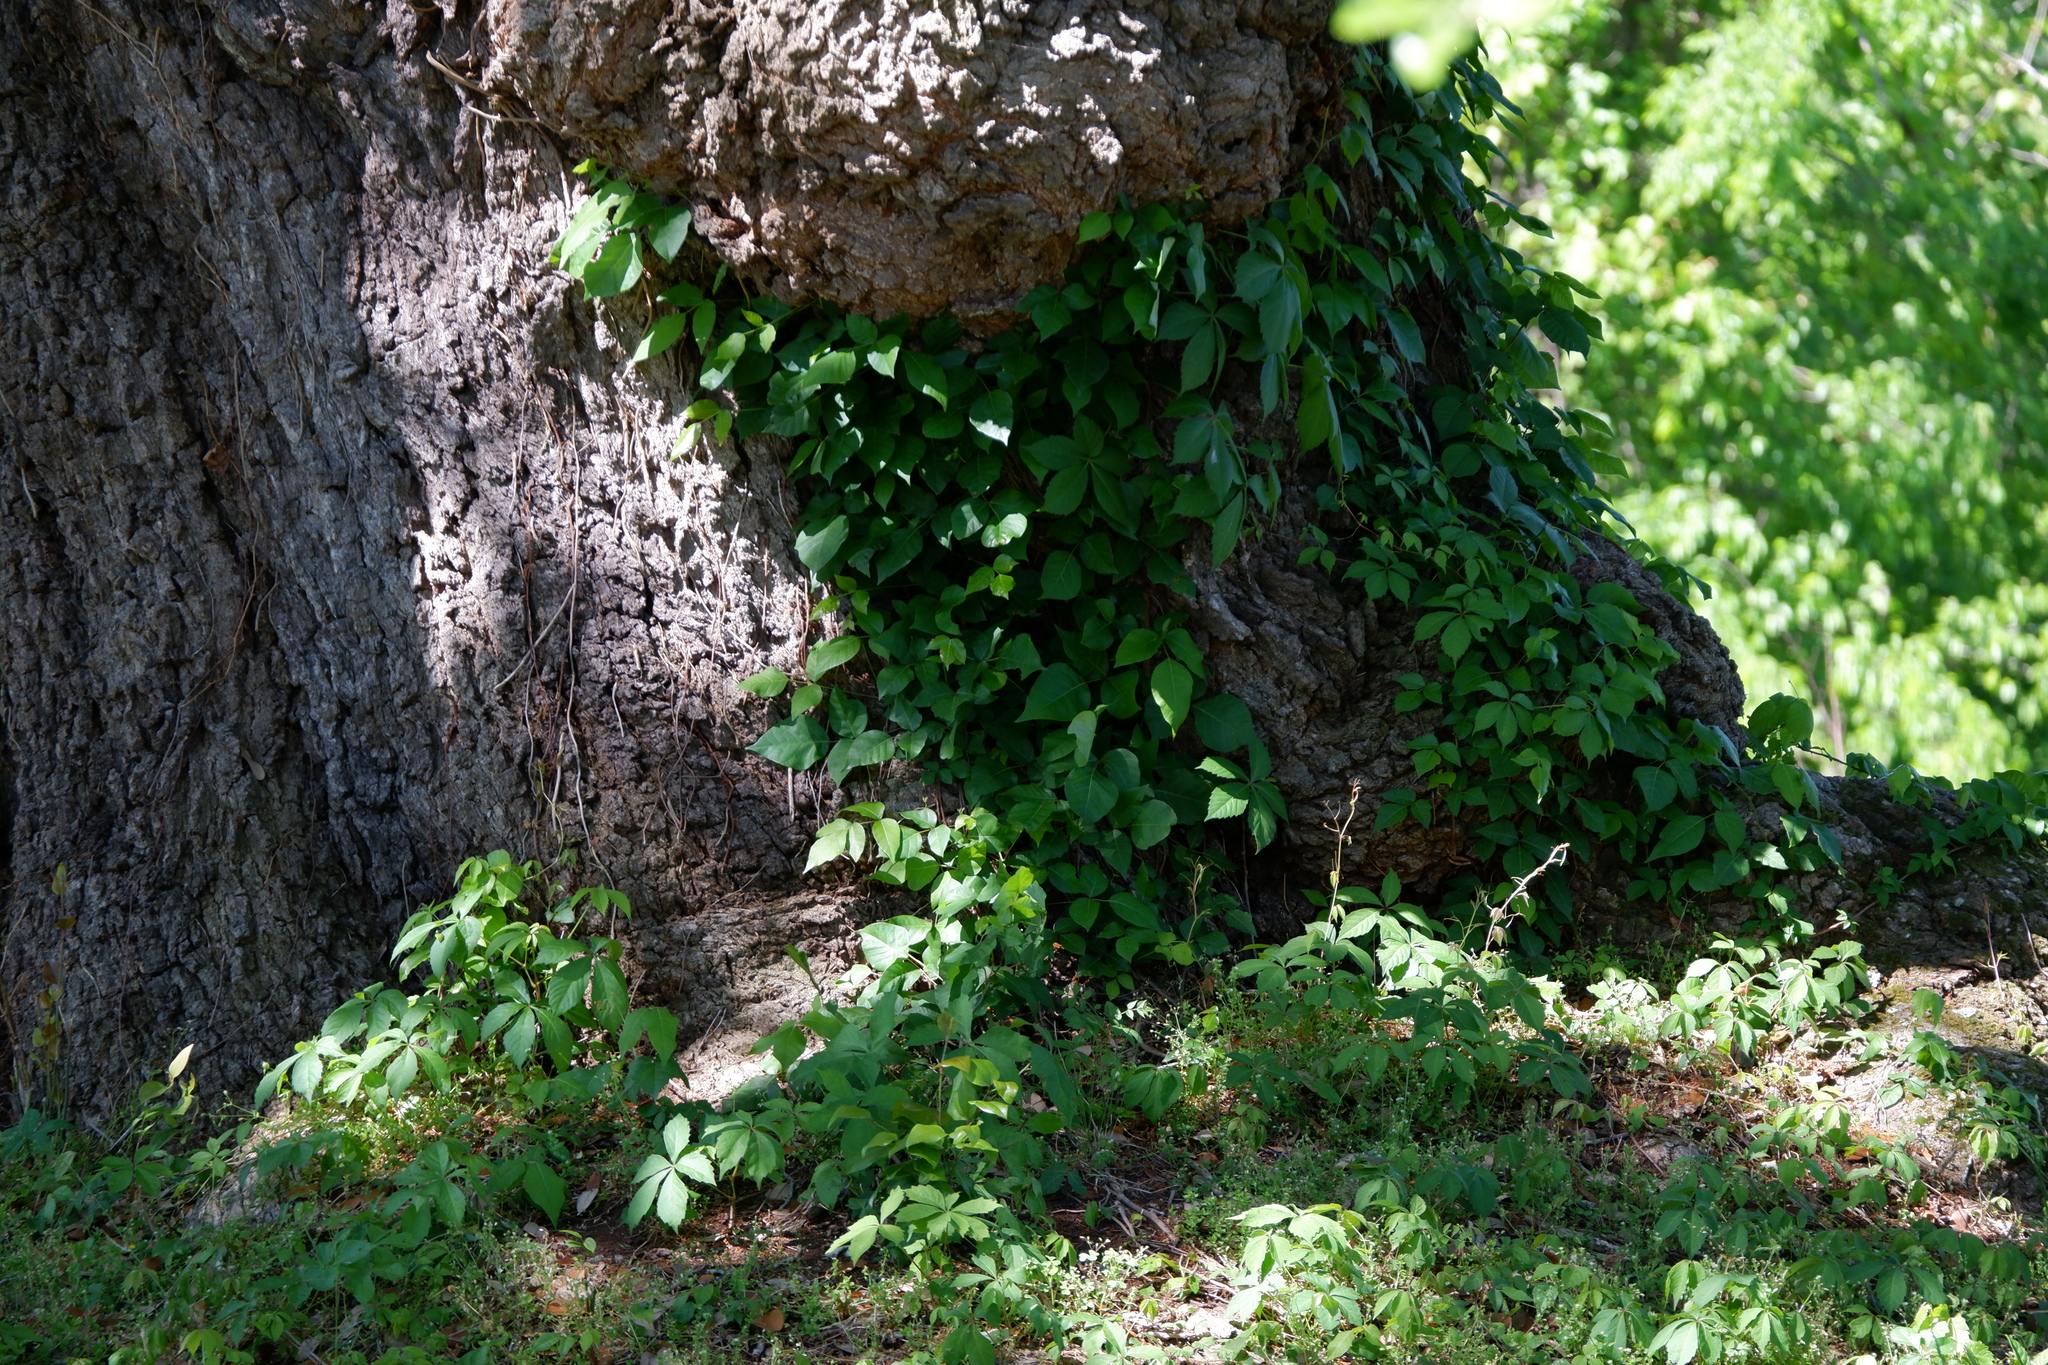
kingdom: Plantae
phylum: Tracheophyta
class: Magnoliopsida
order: Sapindales
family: Anacardiaceae
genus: Toxicodendron
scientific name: Toxicodendron radicans
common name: Poison ivy
